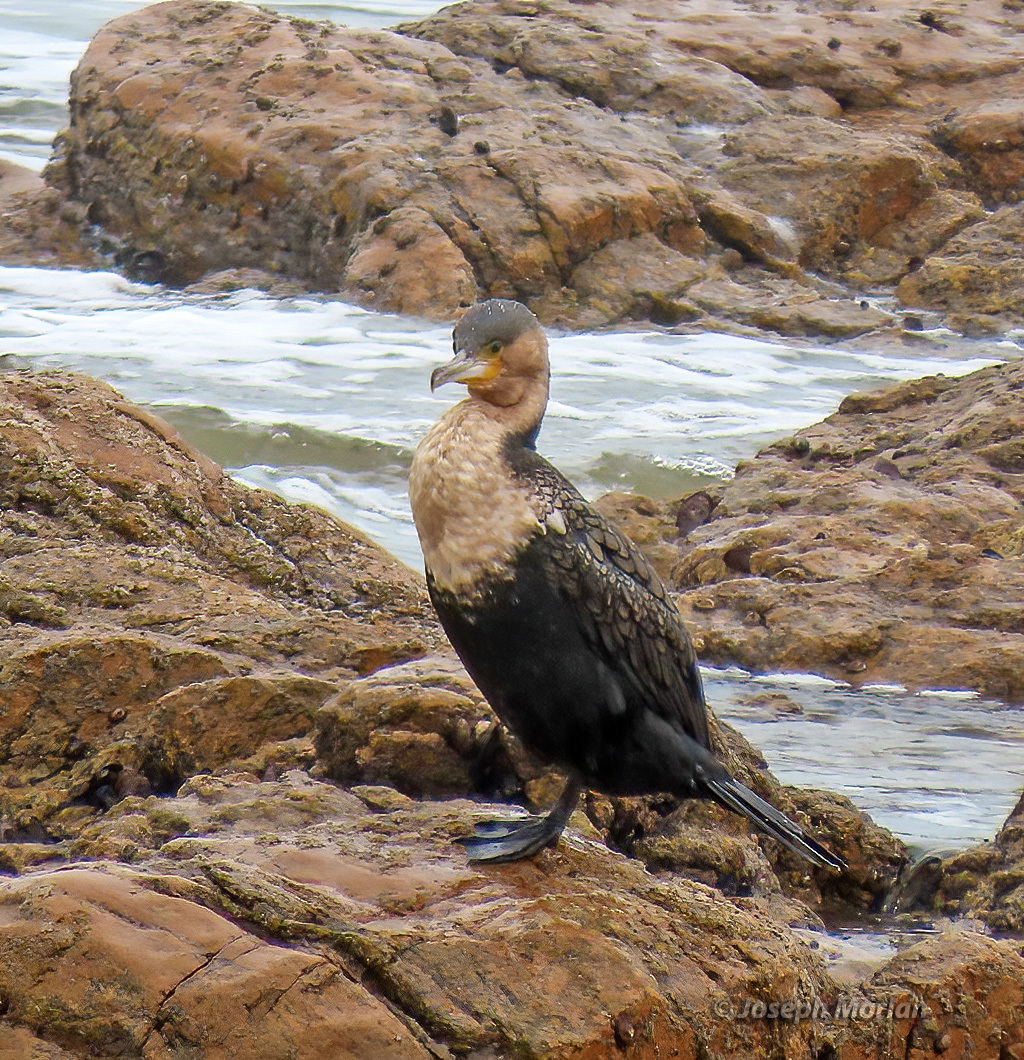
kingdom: Animalia
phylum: Chordata
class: Aves
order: Suliformes
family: Phalacrocoracidae
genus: Phalacrocorax
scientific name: Phalacrocorax carbo
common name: Great cormorant
